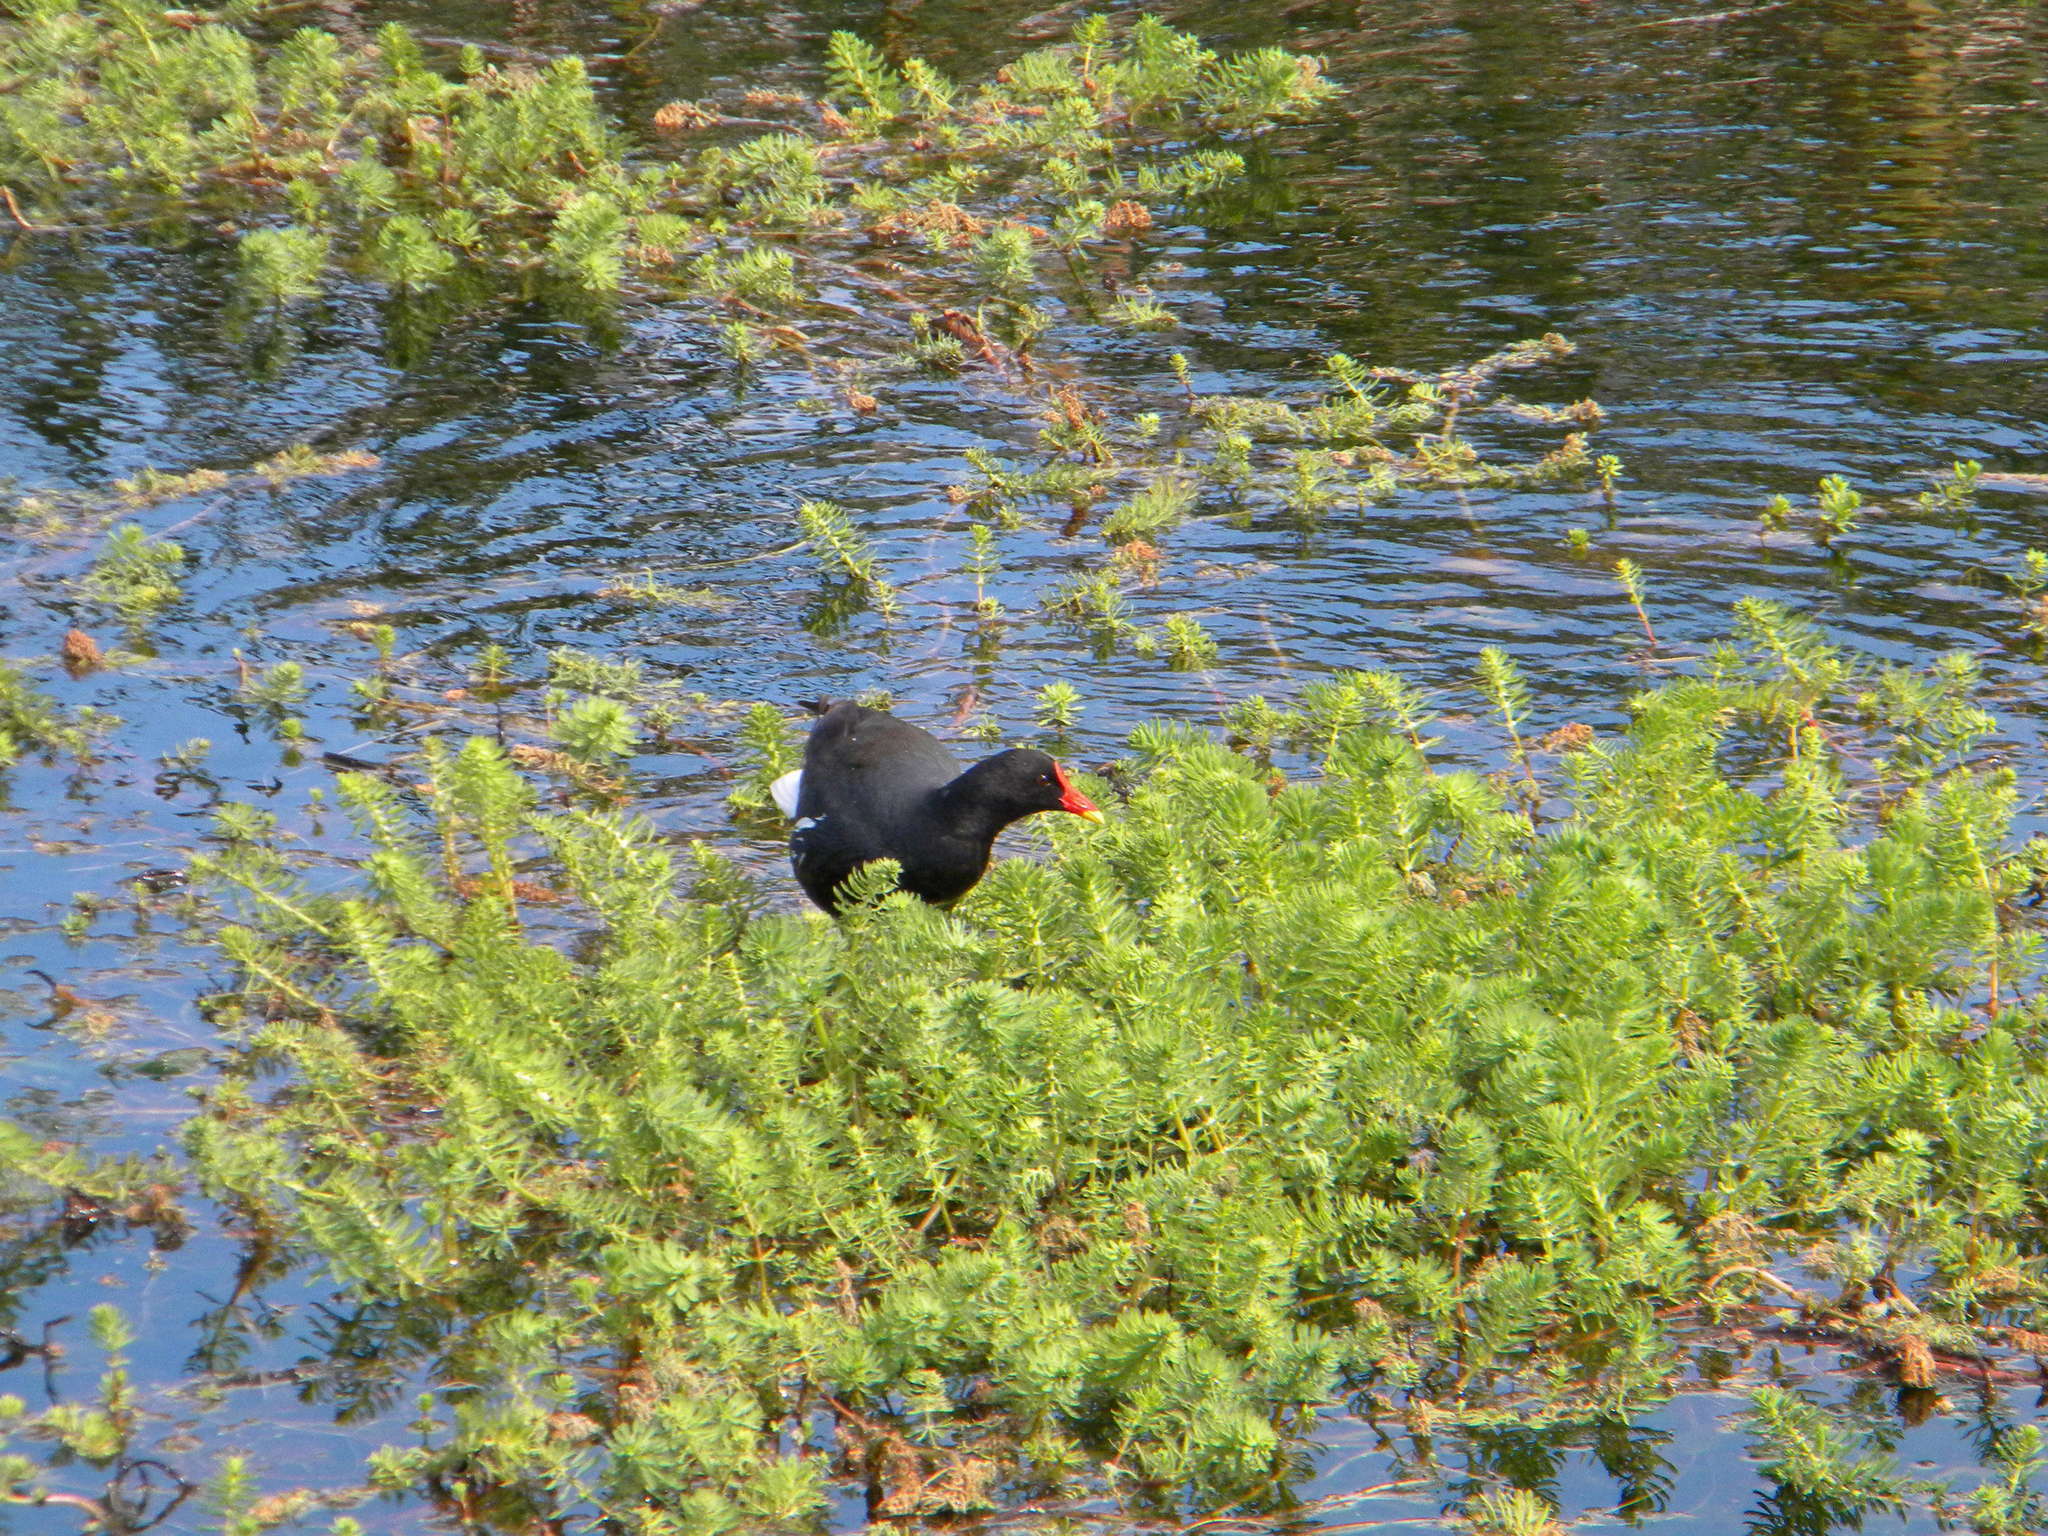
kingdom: Animalia
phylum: Chordata
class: Aves
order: Gruiformes
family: Rallidae
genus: Gallinula
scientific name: Gallinula chloropus
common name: Common moorhen
